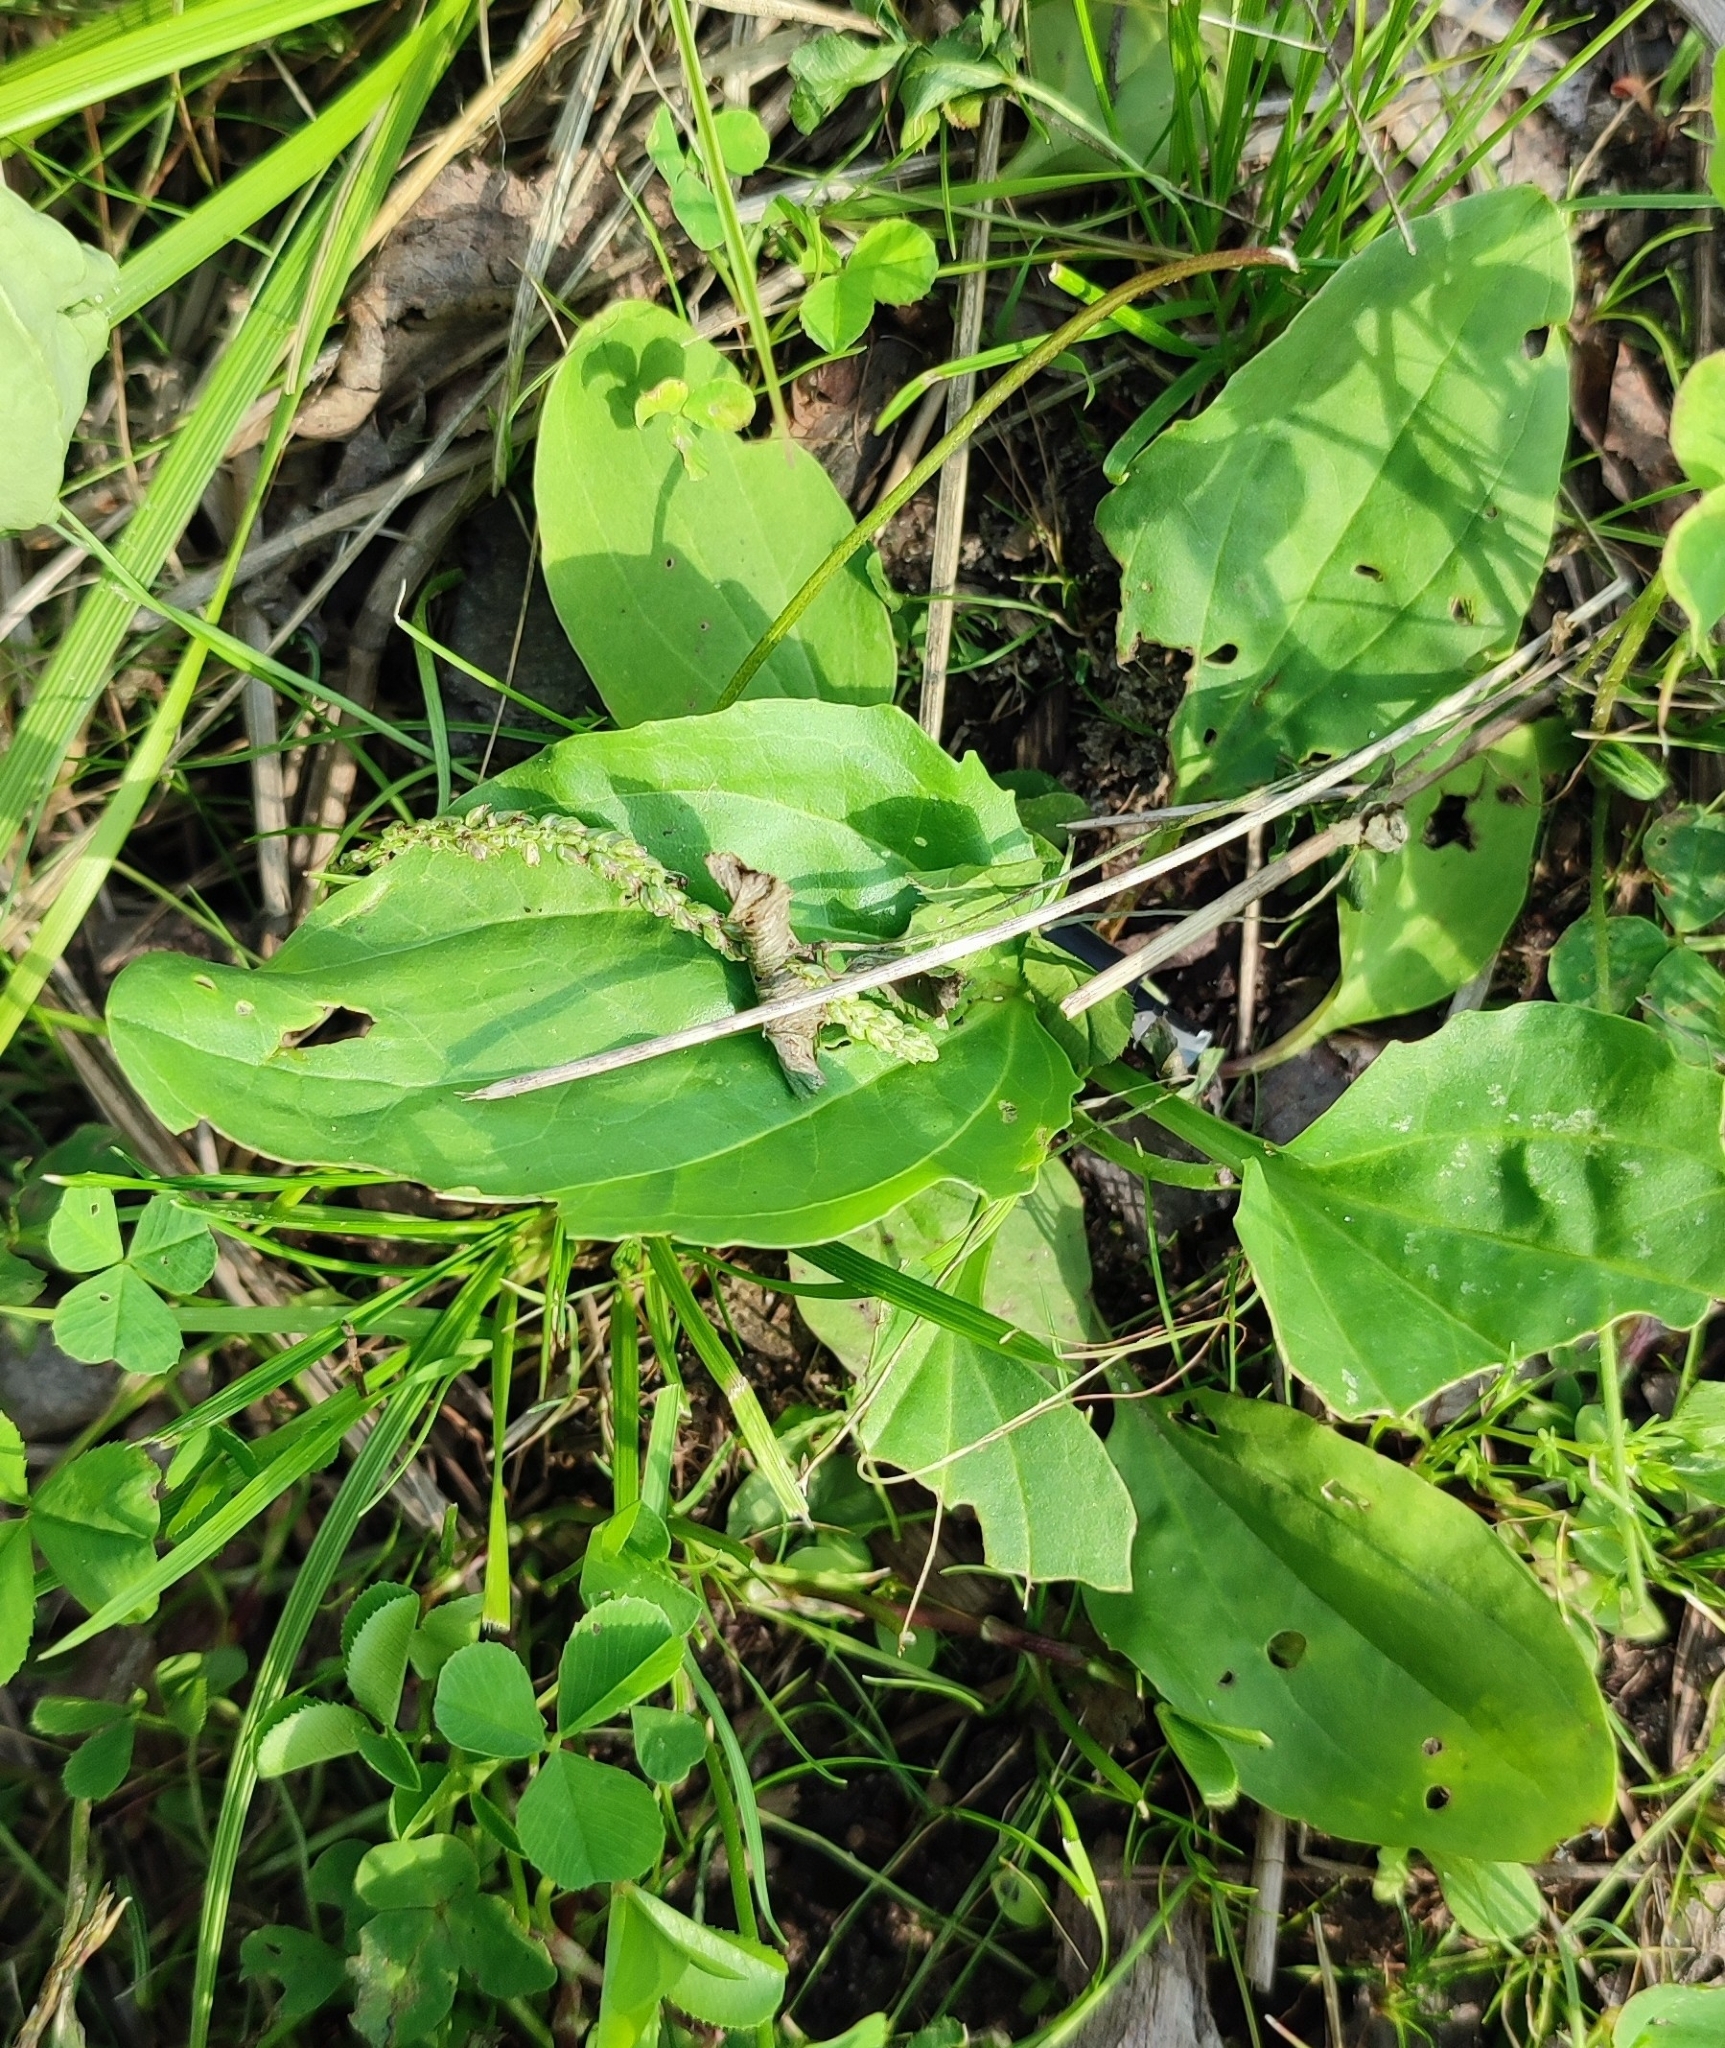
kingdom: Plantae
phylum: Tracheophyta
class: Magnoliopsida
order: Lamiales
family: Plantaginaceae
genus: Plantago
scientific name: Plantago major
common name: Common plantain
